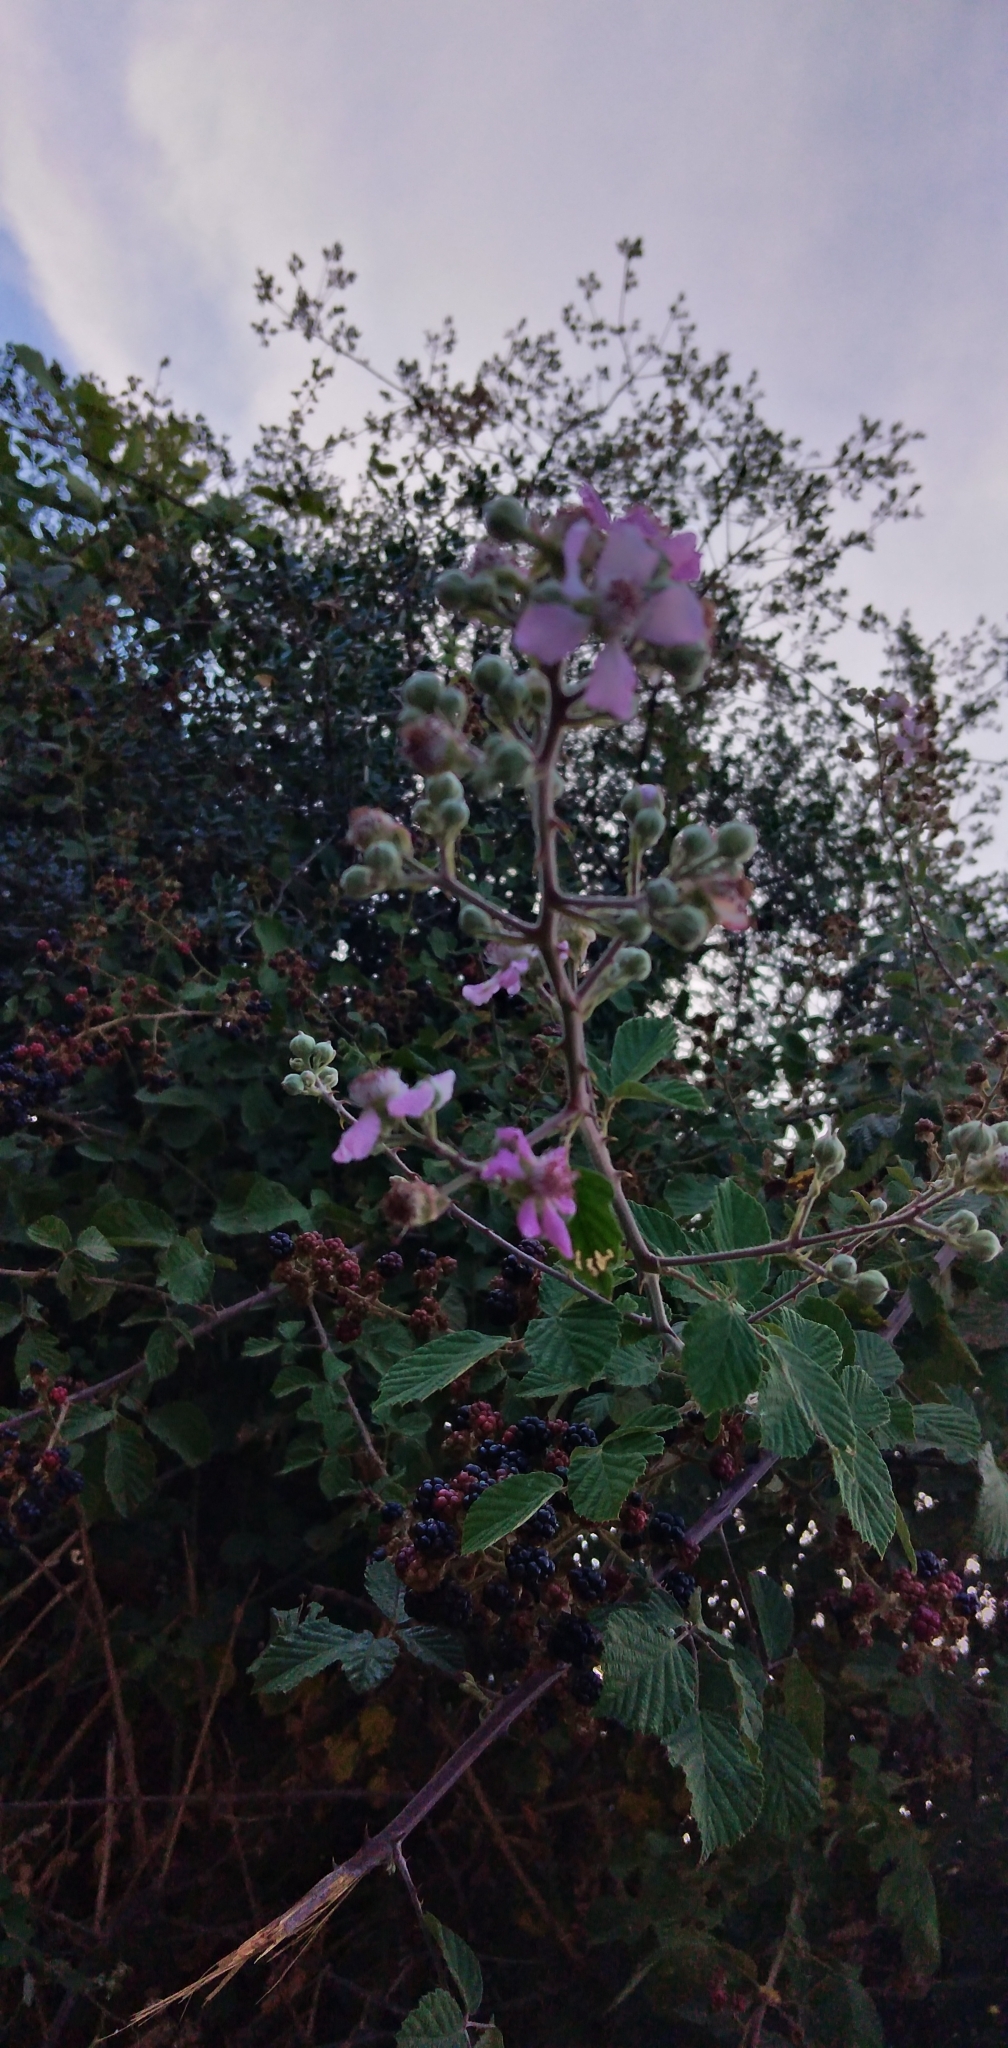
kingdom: Plantae
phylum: Tracheophyta
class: Magnoliopsida
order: Rosales
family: Rosaceae
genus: Rubus
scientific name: Rubus ulmifolius
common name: Elmleaf blackberry
